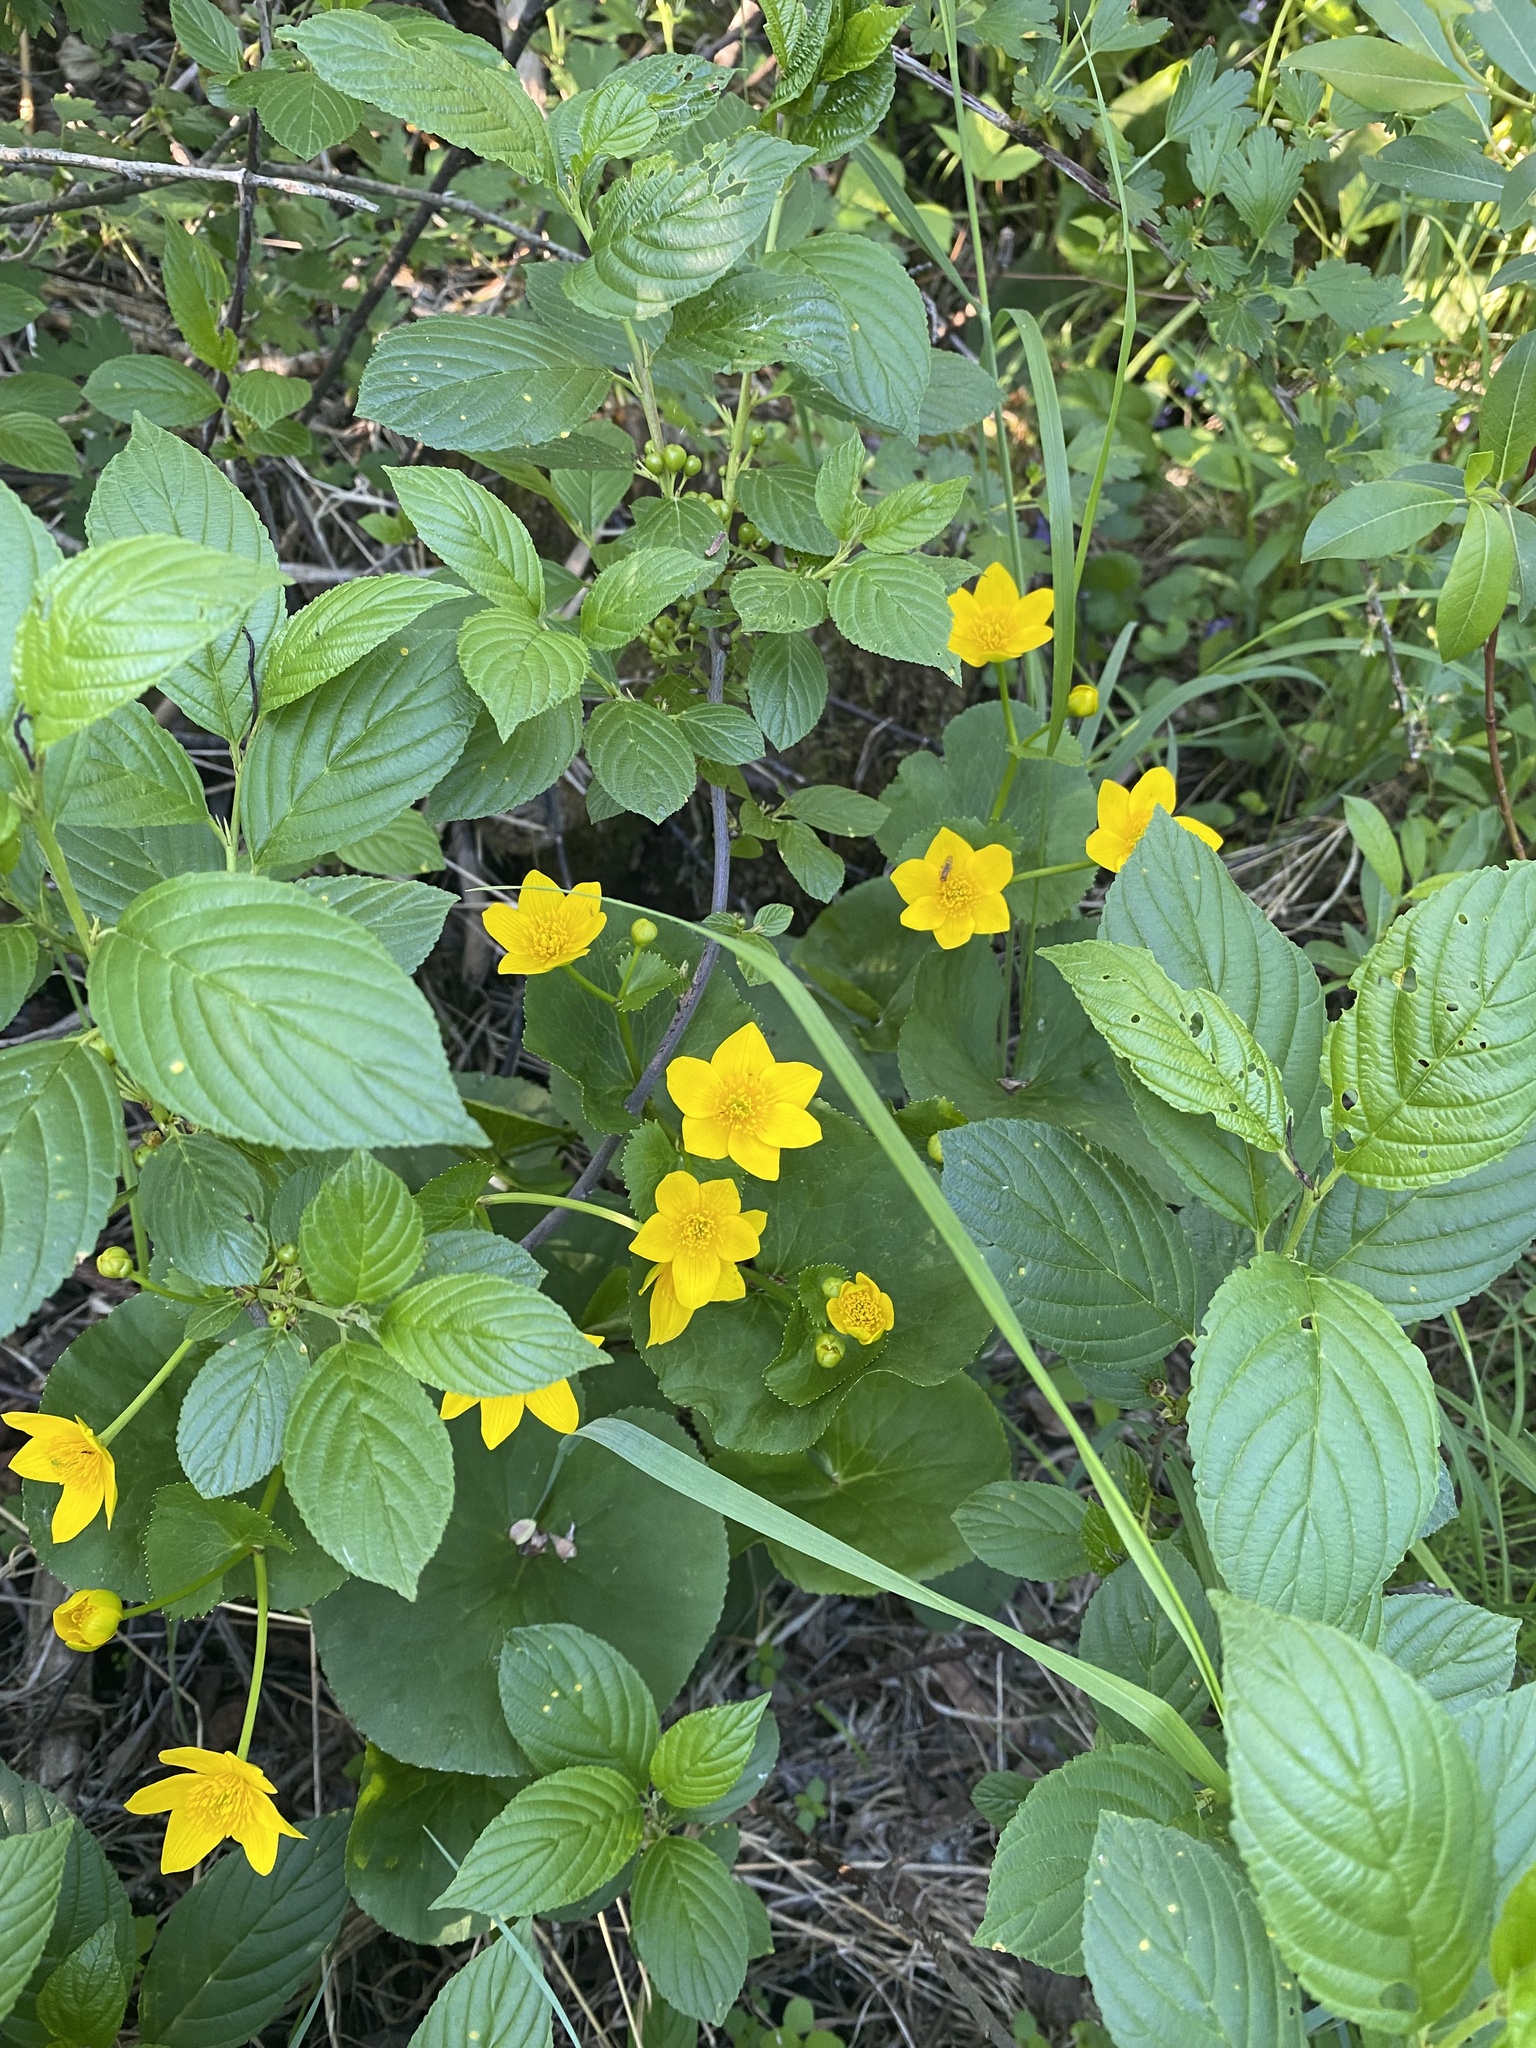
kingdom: Plantae
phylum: Tracheophyta
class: Magnoliopsida
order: Ranunculales
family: Ranunculaceae
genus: Caltha
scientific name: Caltha palustris
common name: Marsh marigold
